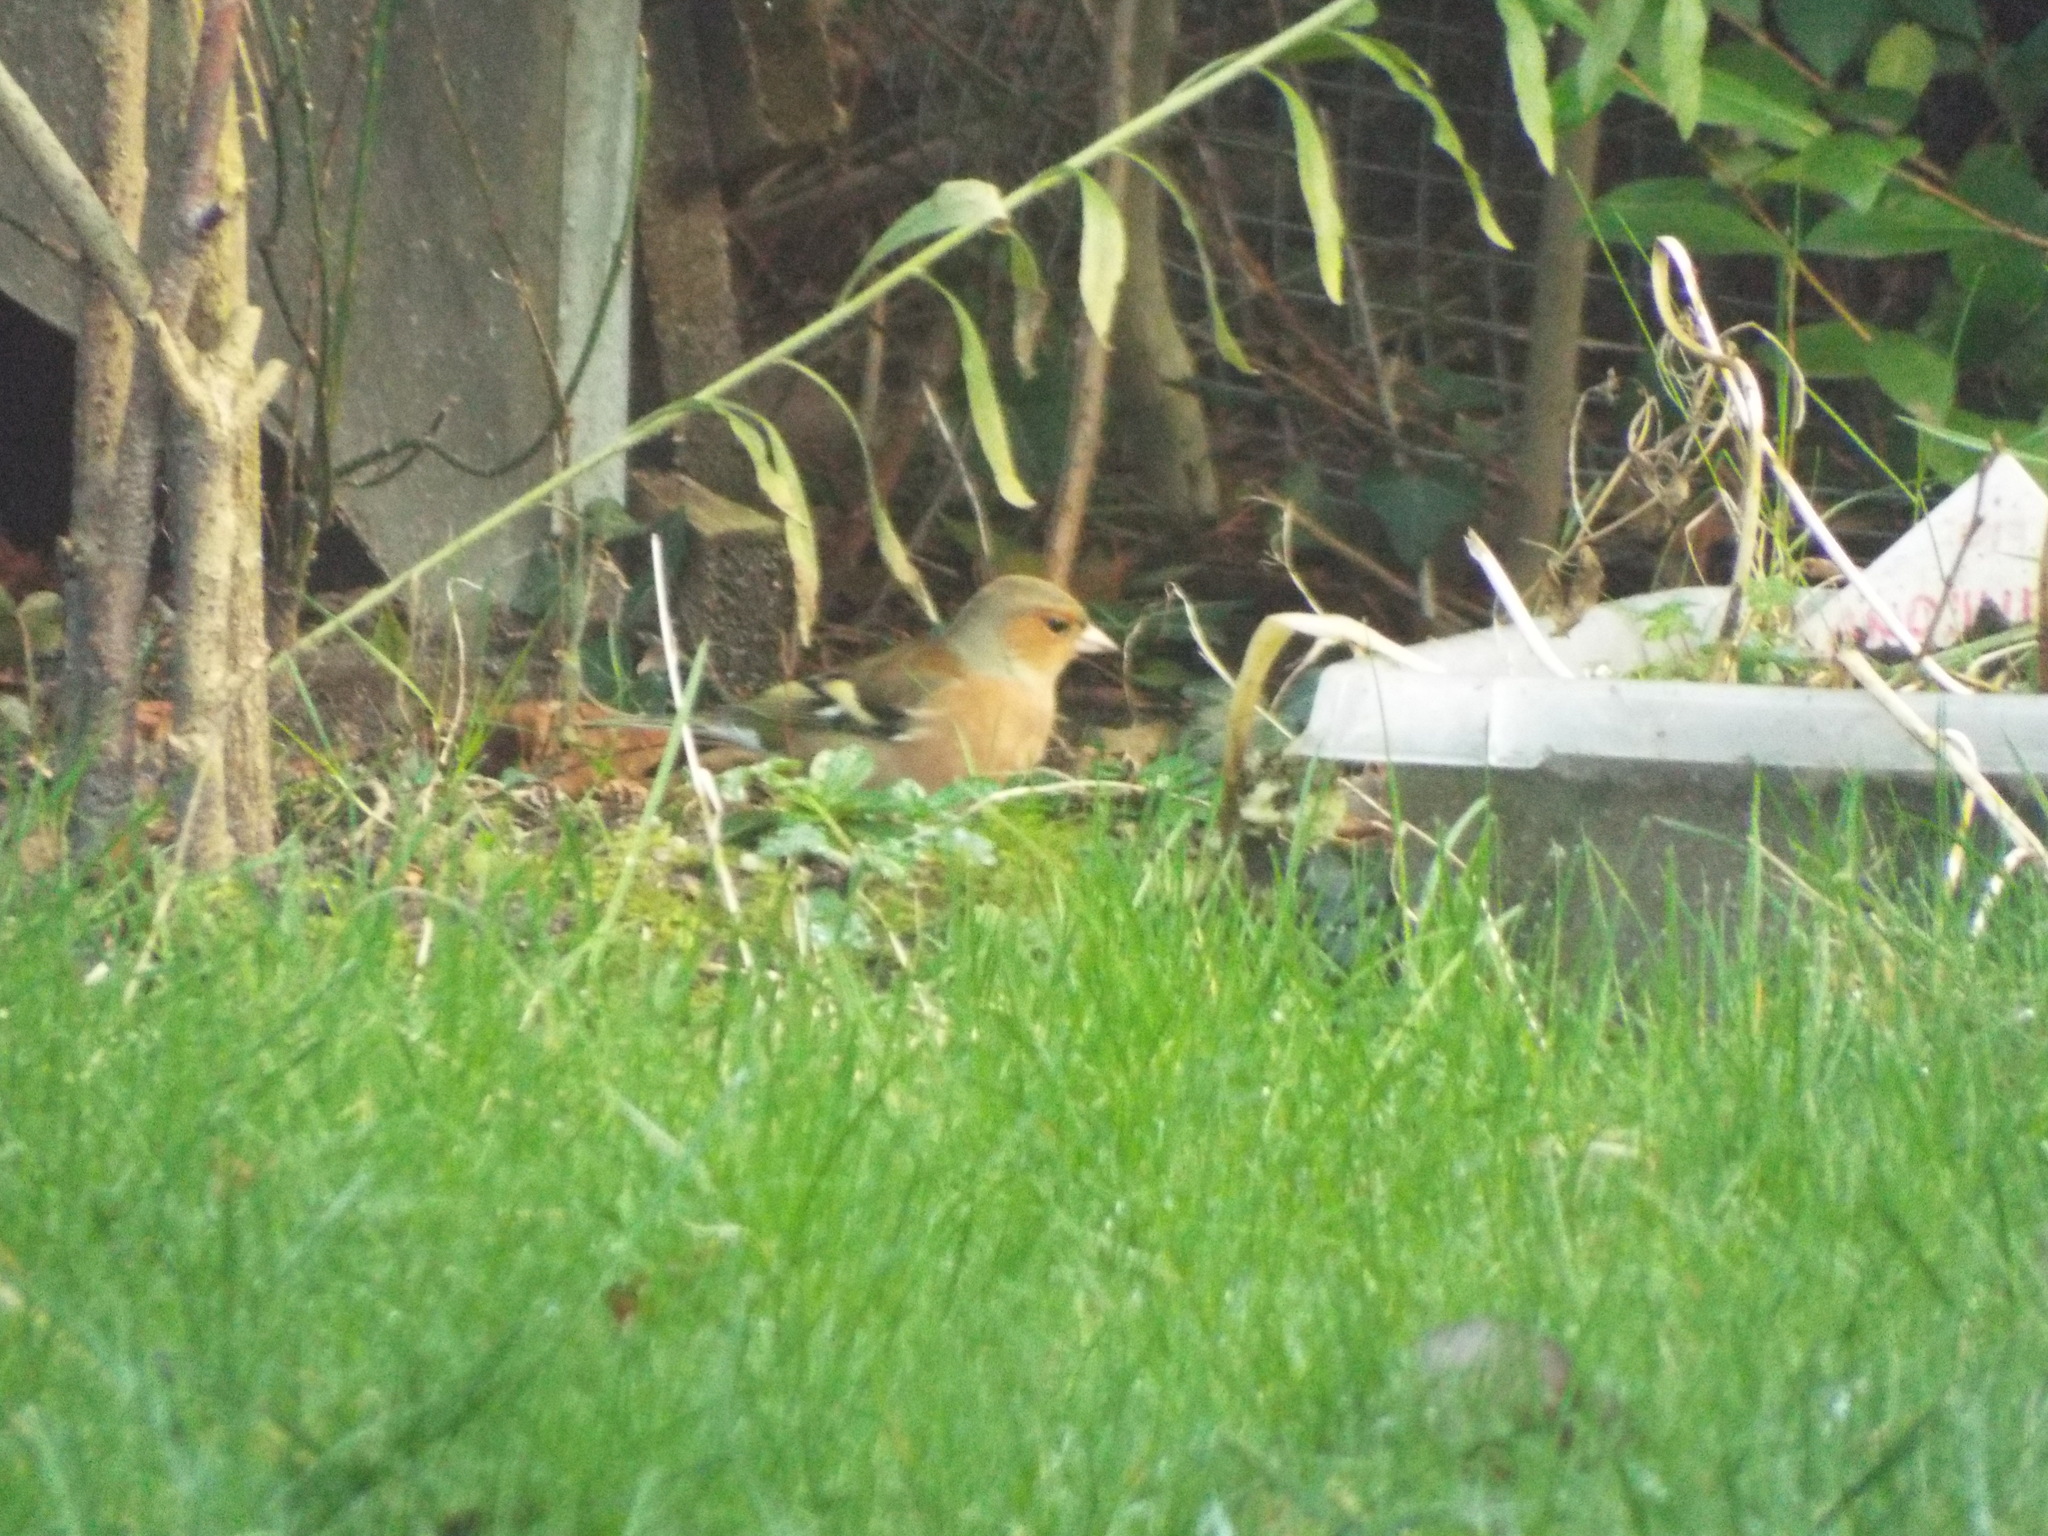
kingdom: Animalia
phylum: Chordata
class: Aves
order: Passeriformes
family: Fringillidae
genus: Fringilla
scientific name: Fringilla coelebs
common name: Common chaffinch
